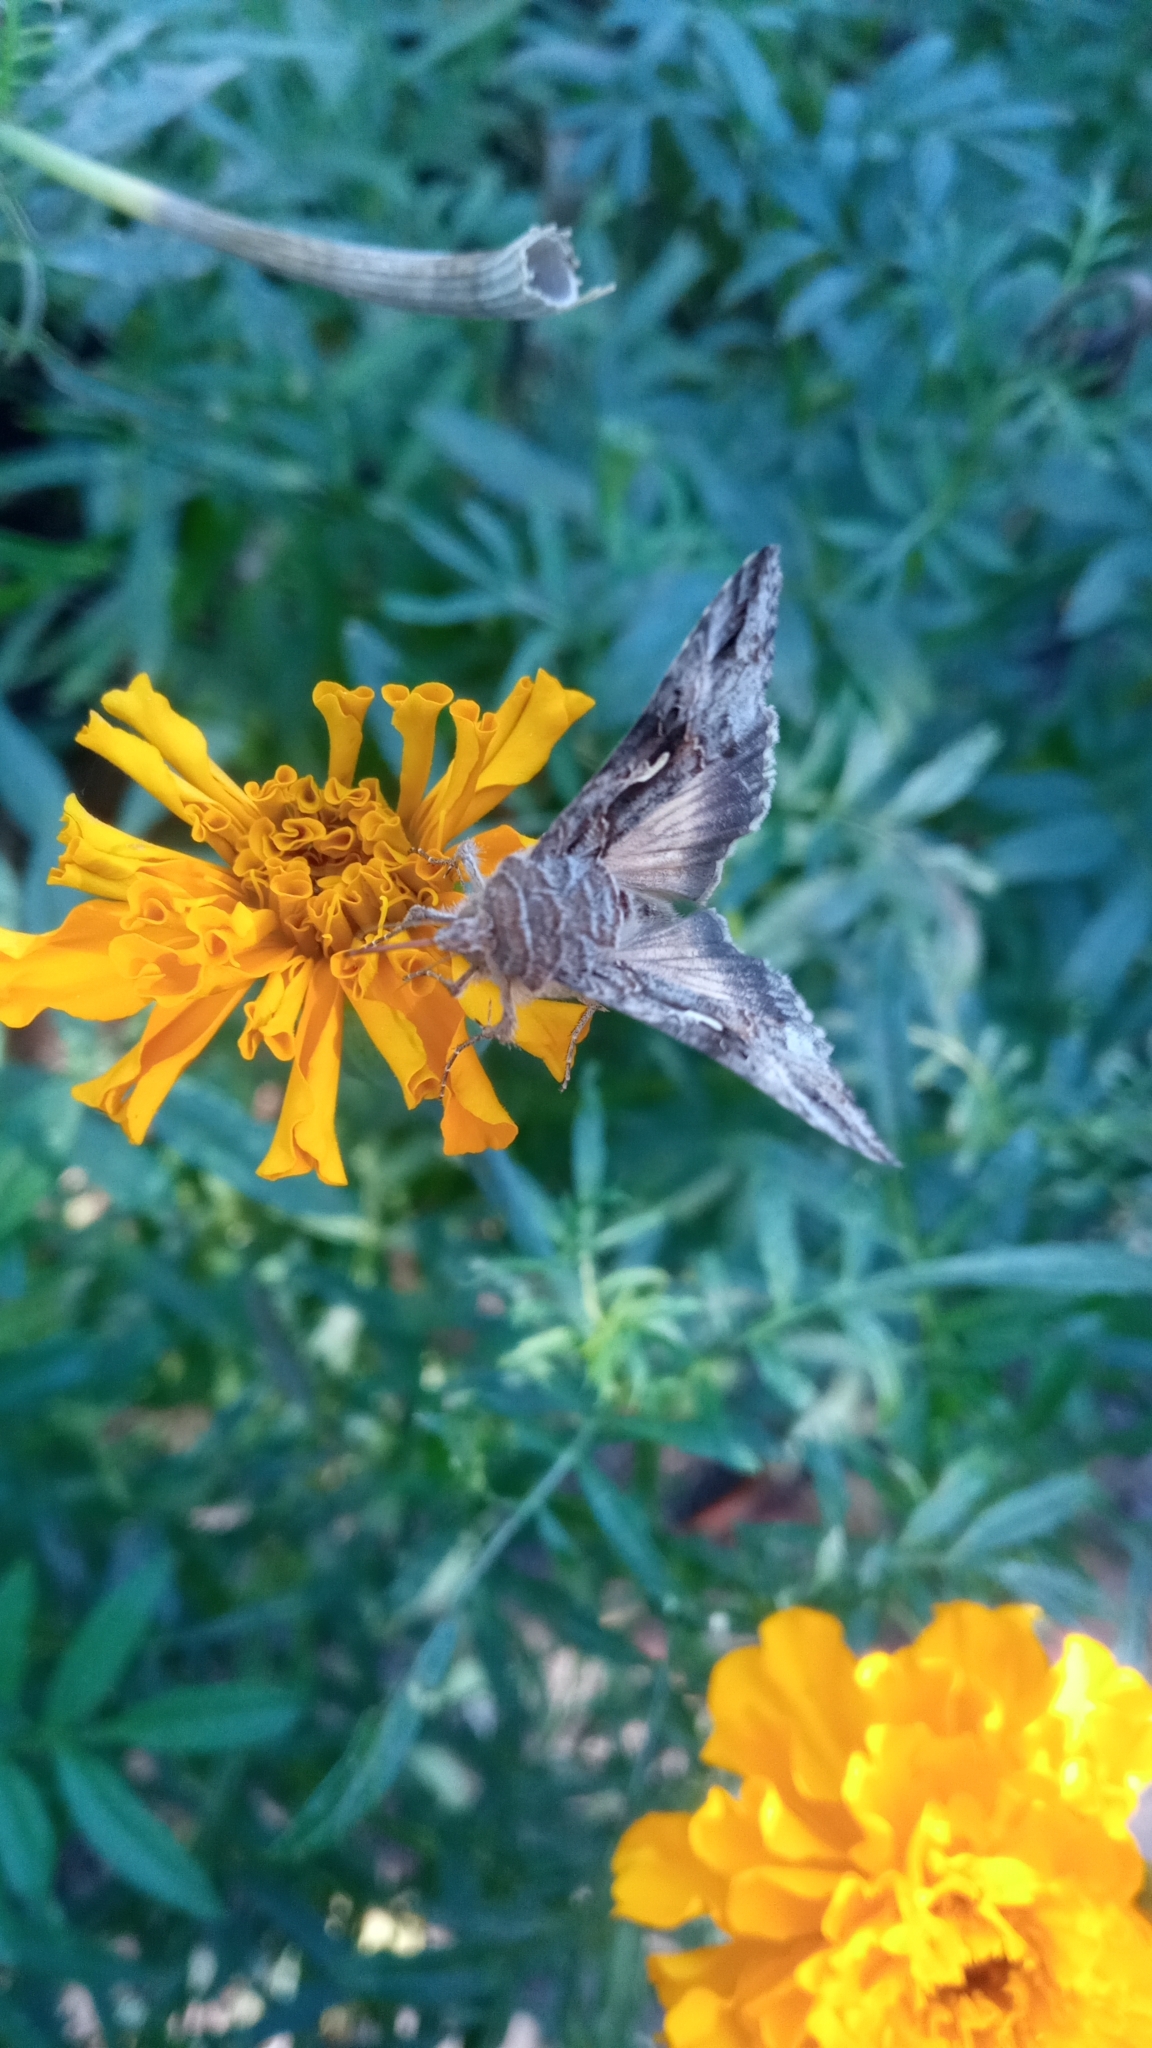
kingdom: Animalia
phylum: Arthropoda
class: Insecta
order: Lepidoptera
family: Noctuidae
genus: Autographa
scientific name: Autographa gamma
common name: Silver y
